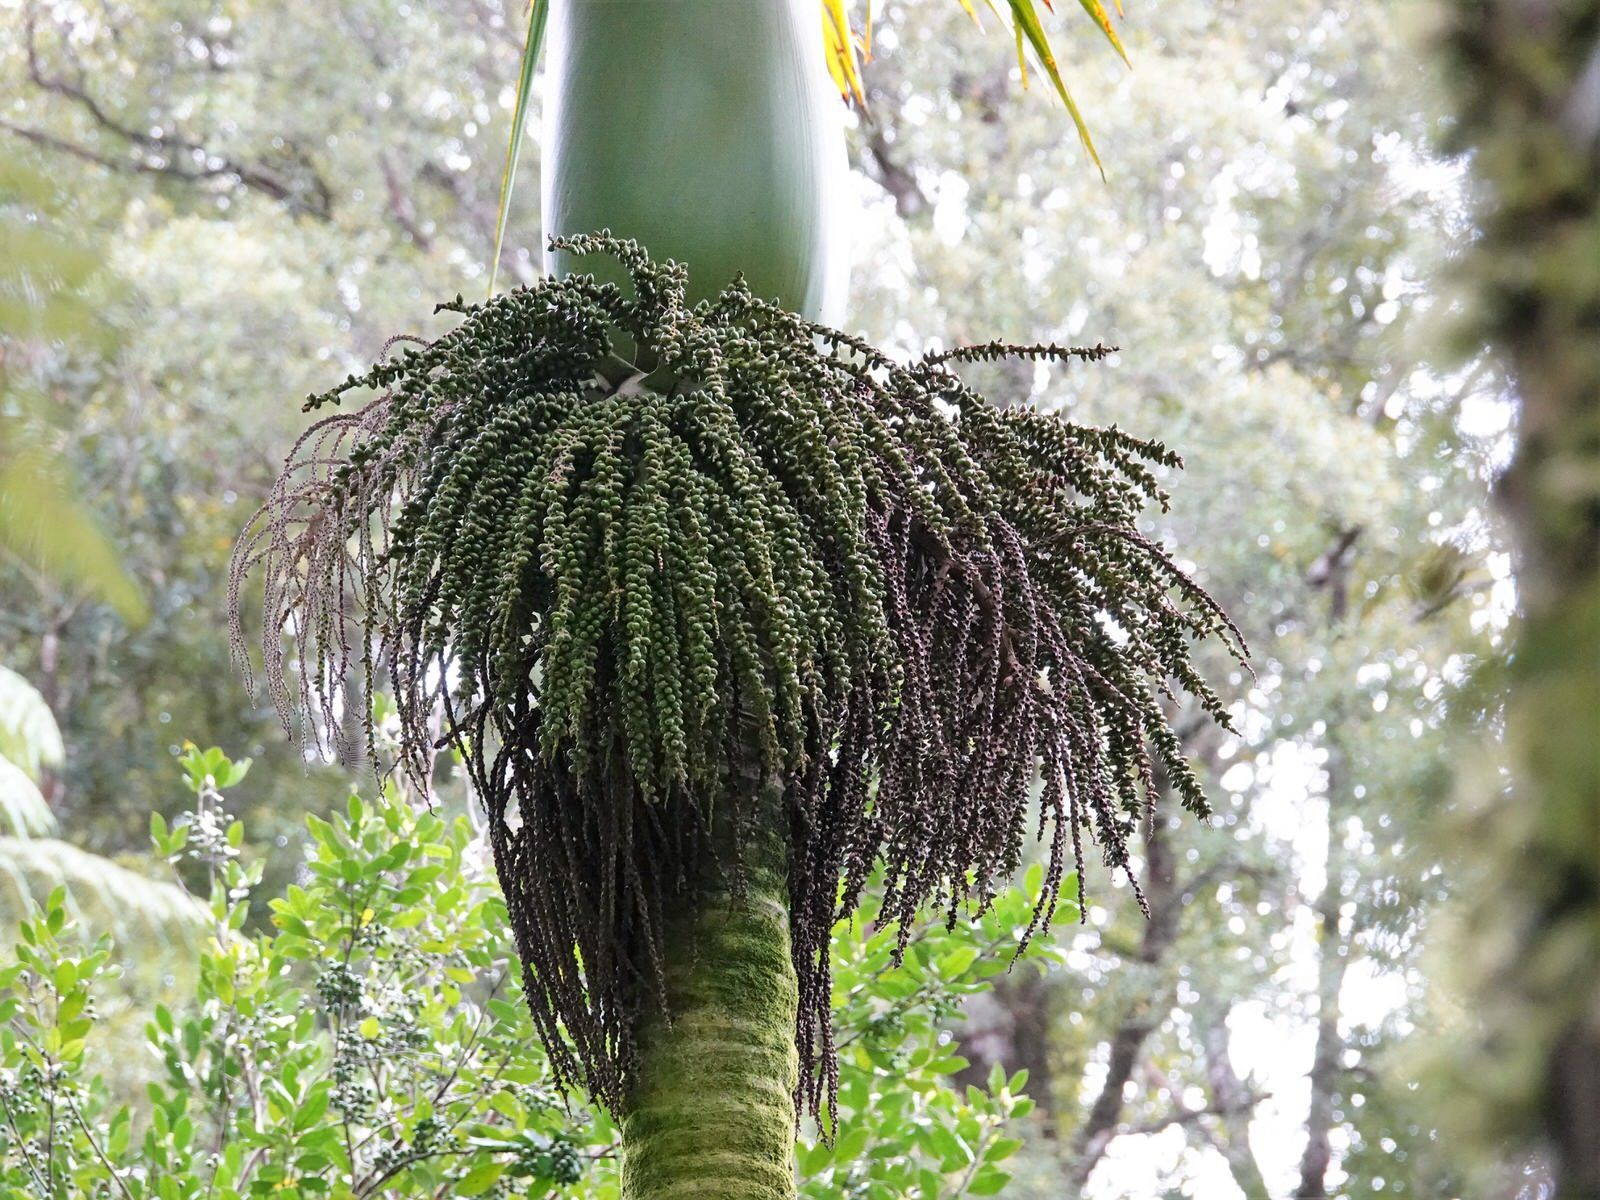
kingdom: Plantae
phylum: Tracheophyta
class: Liliopsida
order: Arecales
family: Arecaceae
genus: Rhopalostylis
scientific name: Rhopalostylis sapida
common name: Feather-duster palm
